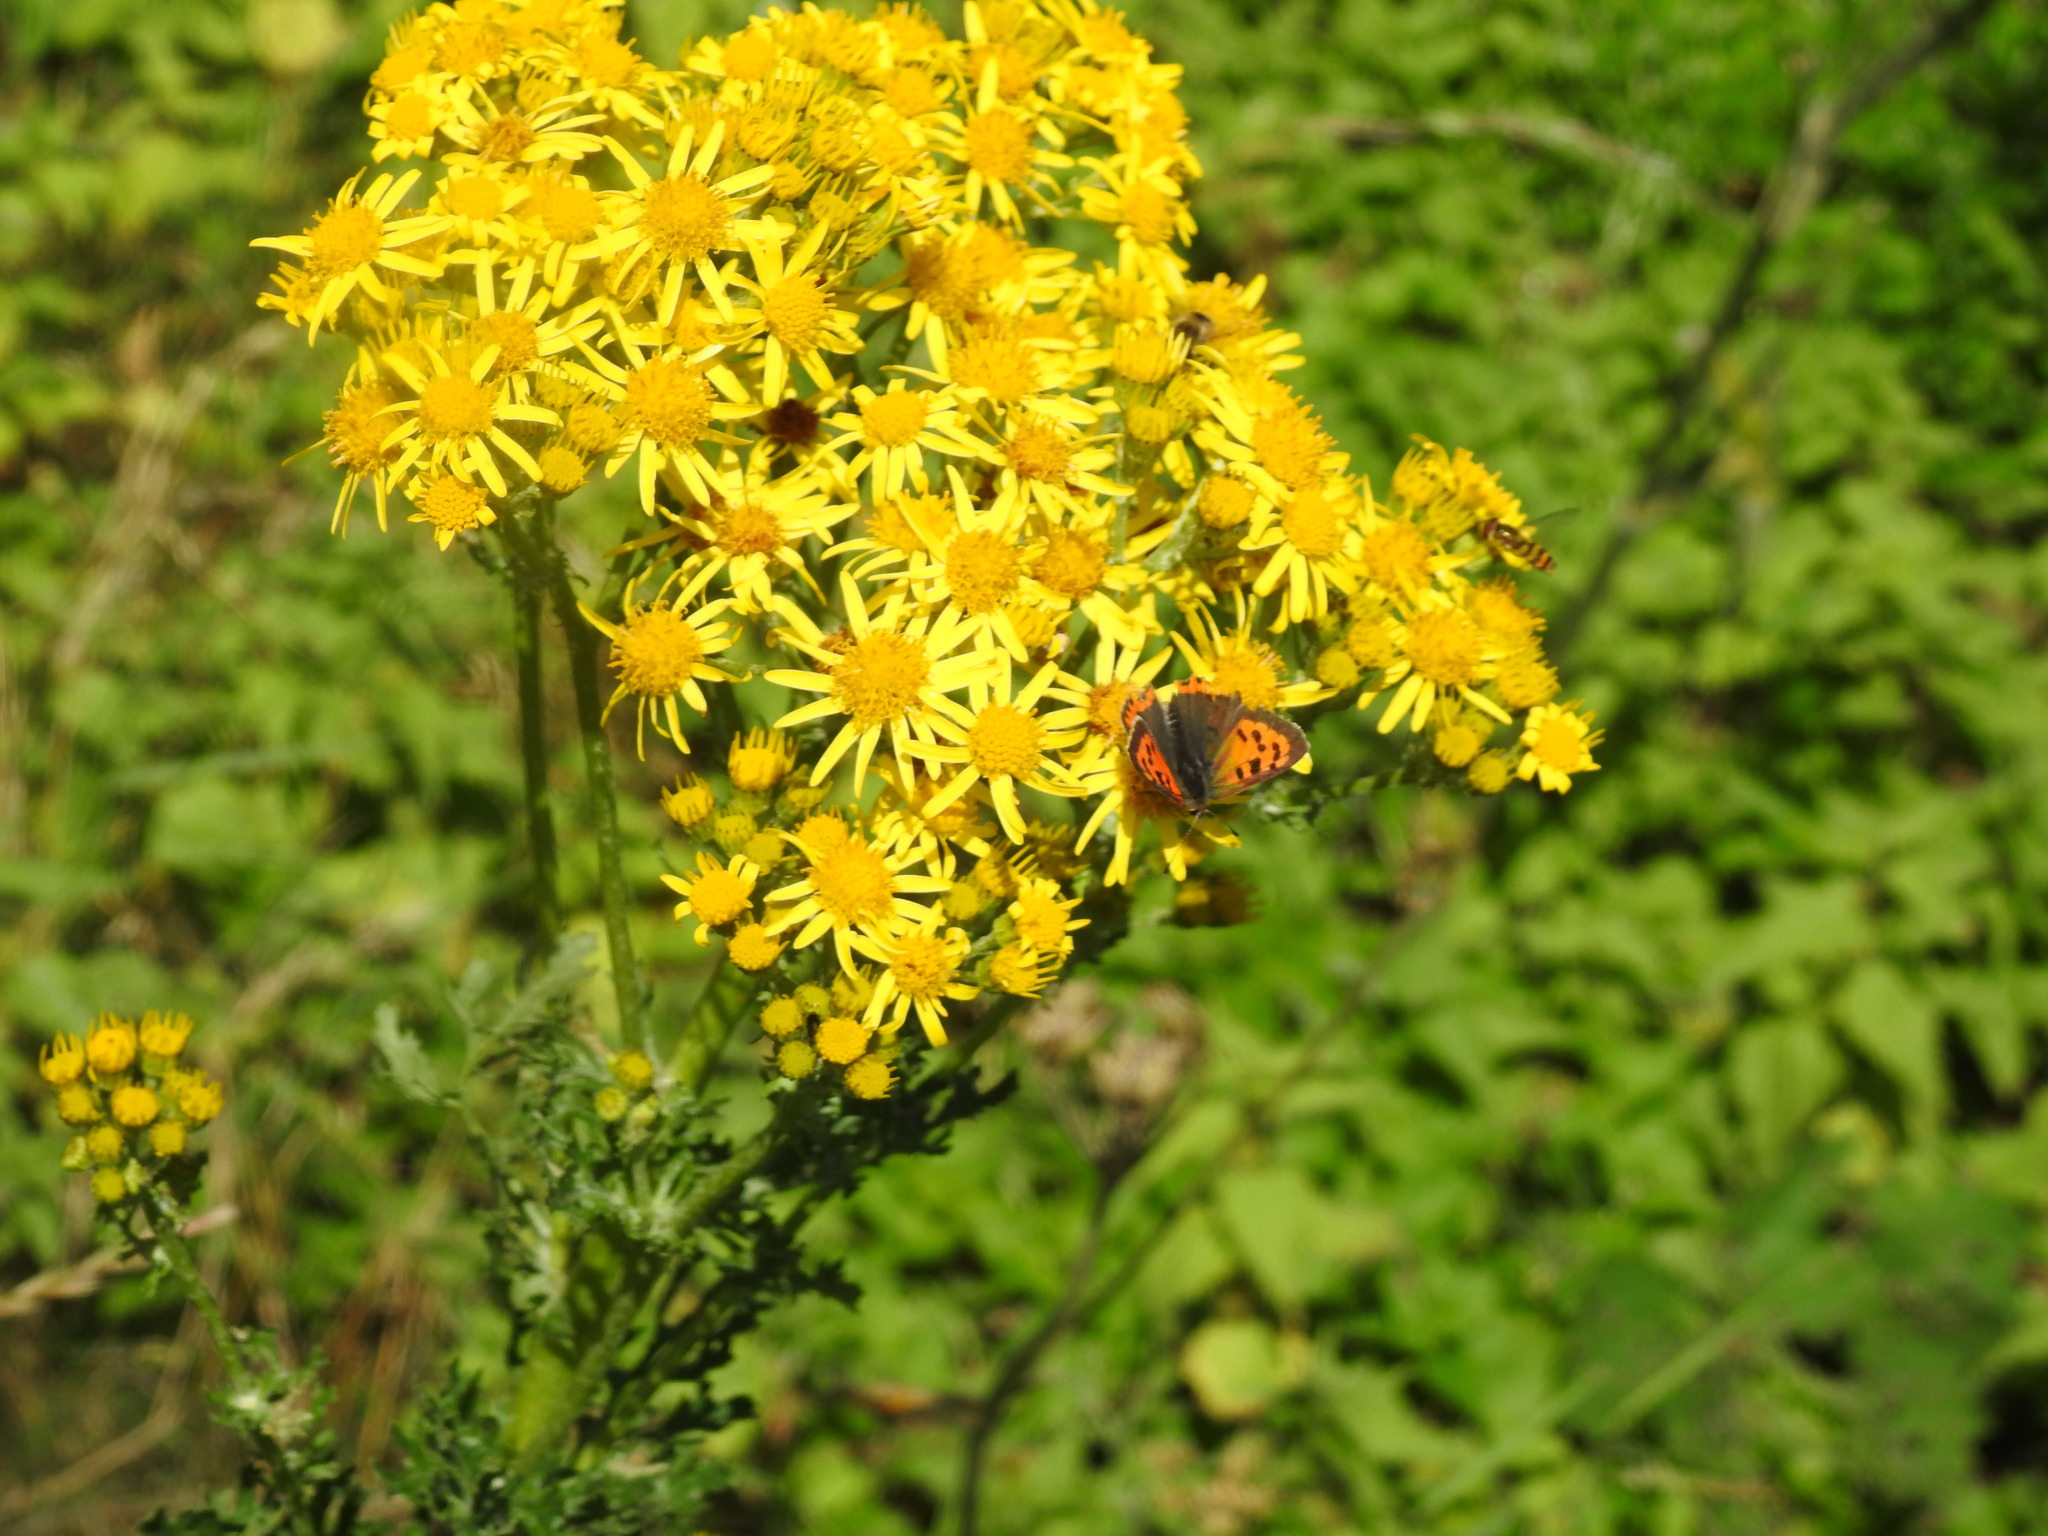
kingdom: Animalia
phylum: Arthropoda
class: Insecta
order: Lepidoptera
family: Lycaenidae
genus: Lycaena
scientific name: Lycaena phlaeas
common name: Small copper
